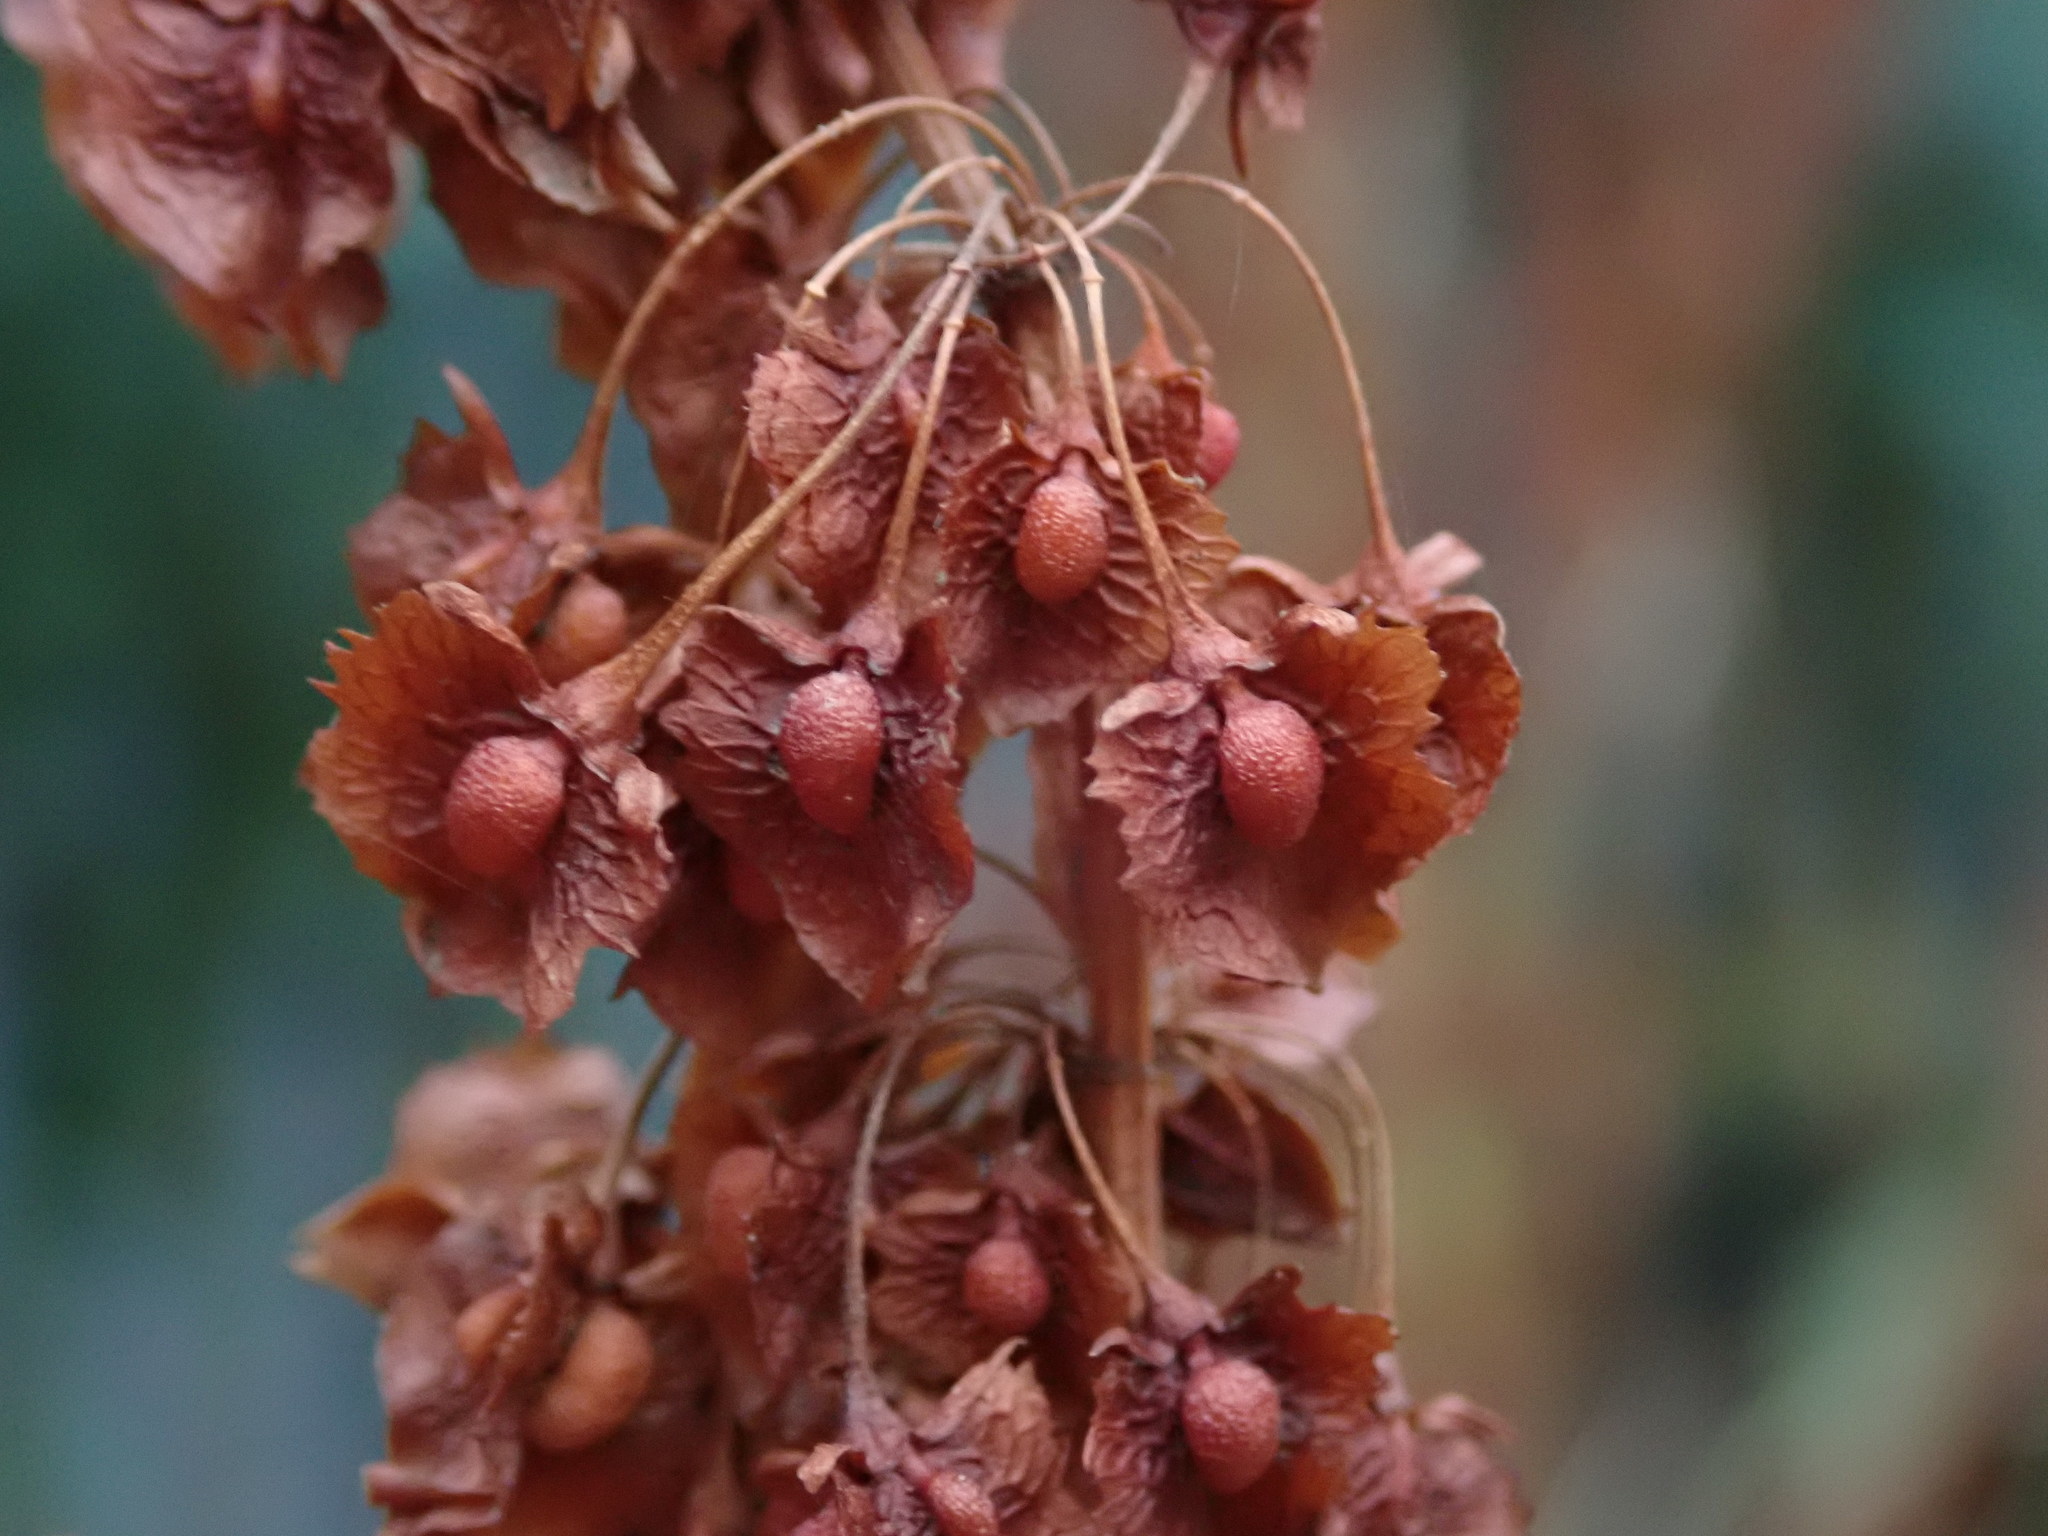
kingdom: Plantae
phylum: Tracheophyta
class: Magnoliopsida
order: Caryophyllales
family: Polygonaceae
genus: Rumex
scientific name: Rumex cristatus
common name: Greek dock
